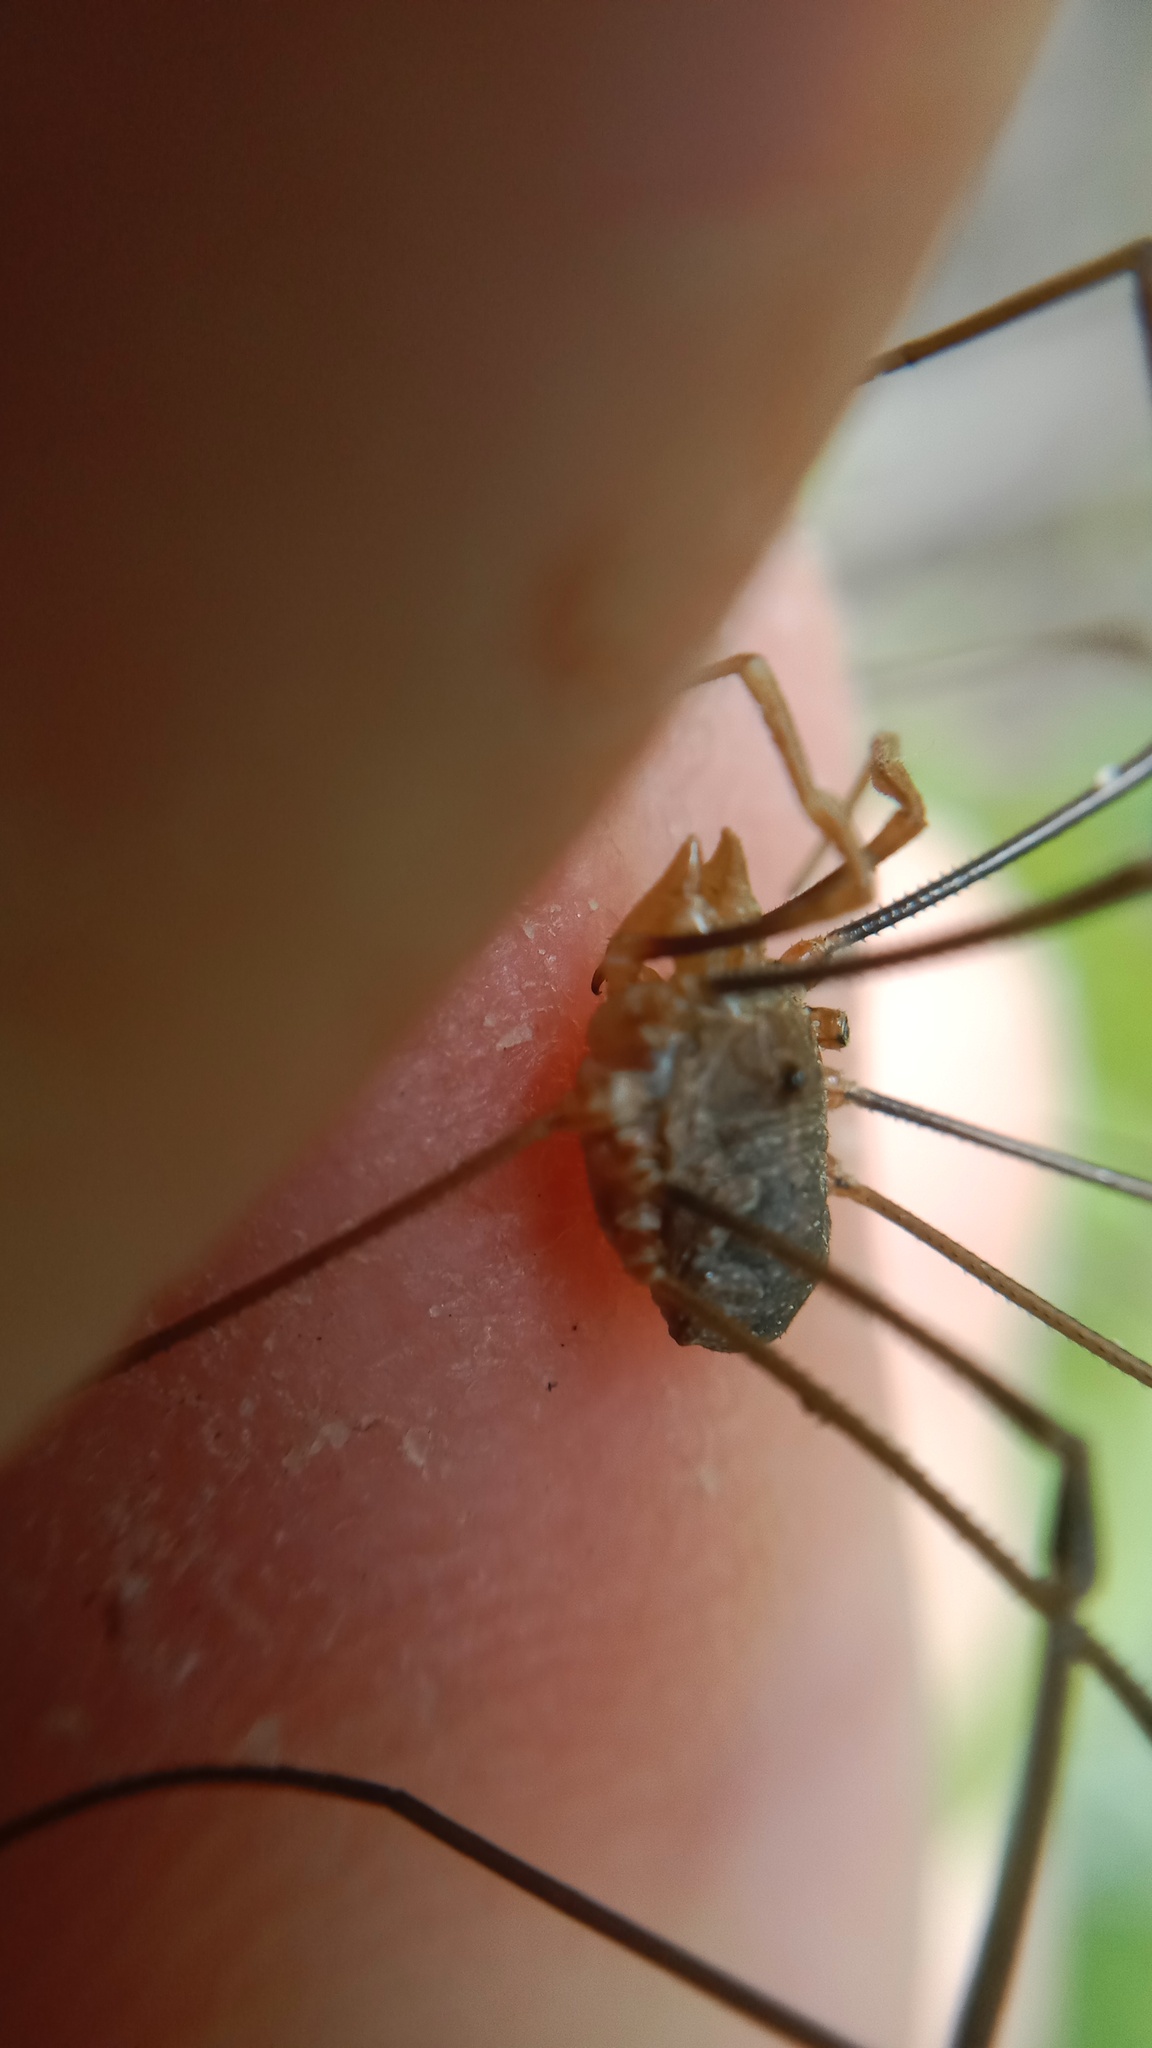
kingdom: Animalia
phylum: Arthropoda
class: Arachnida
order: Opiliones
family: Phalangiidae
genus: Phalangium
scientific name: Phalangium opilio
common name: Daddy longleg
